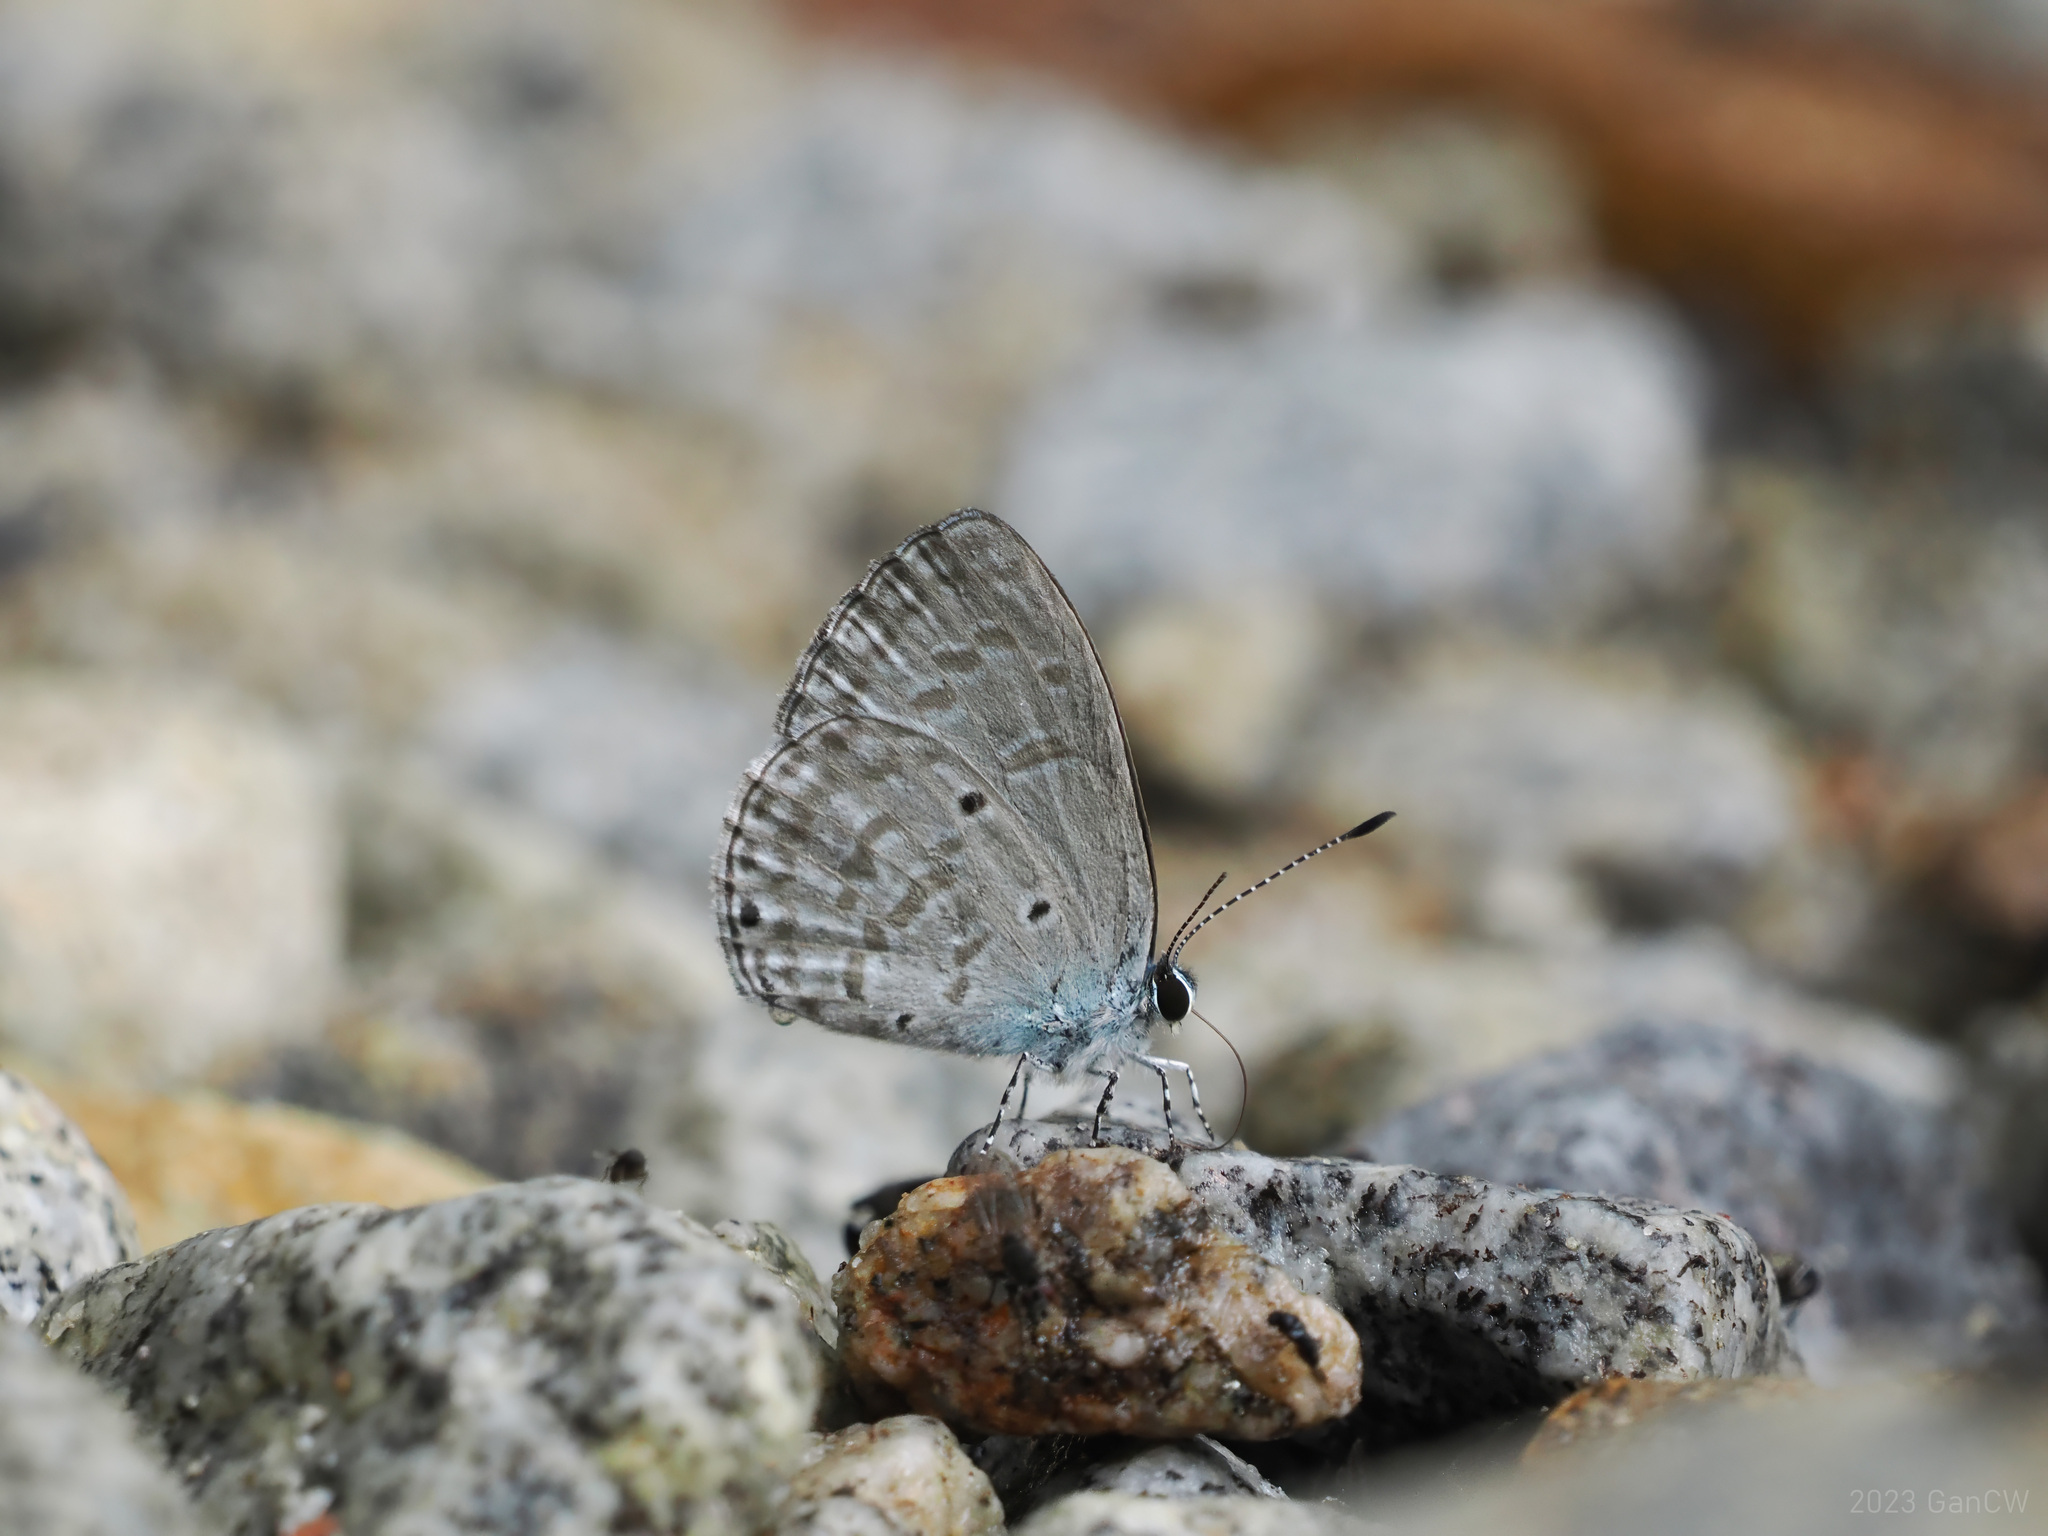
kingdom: Animalia
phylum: Arthropoda
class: Insecta
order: Lepidoptera
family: Lycaenidae
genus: Monodontides
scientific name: Monodontides
